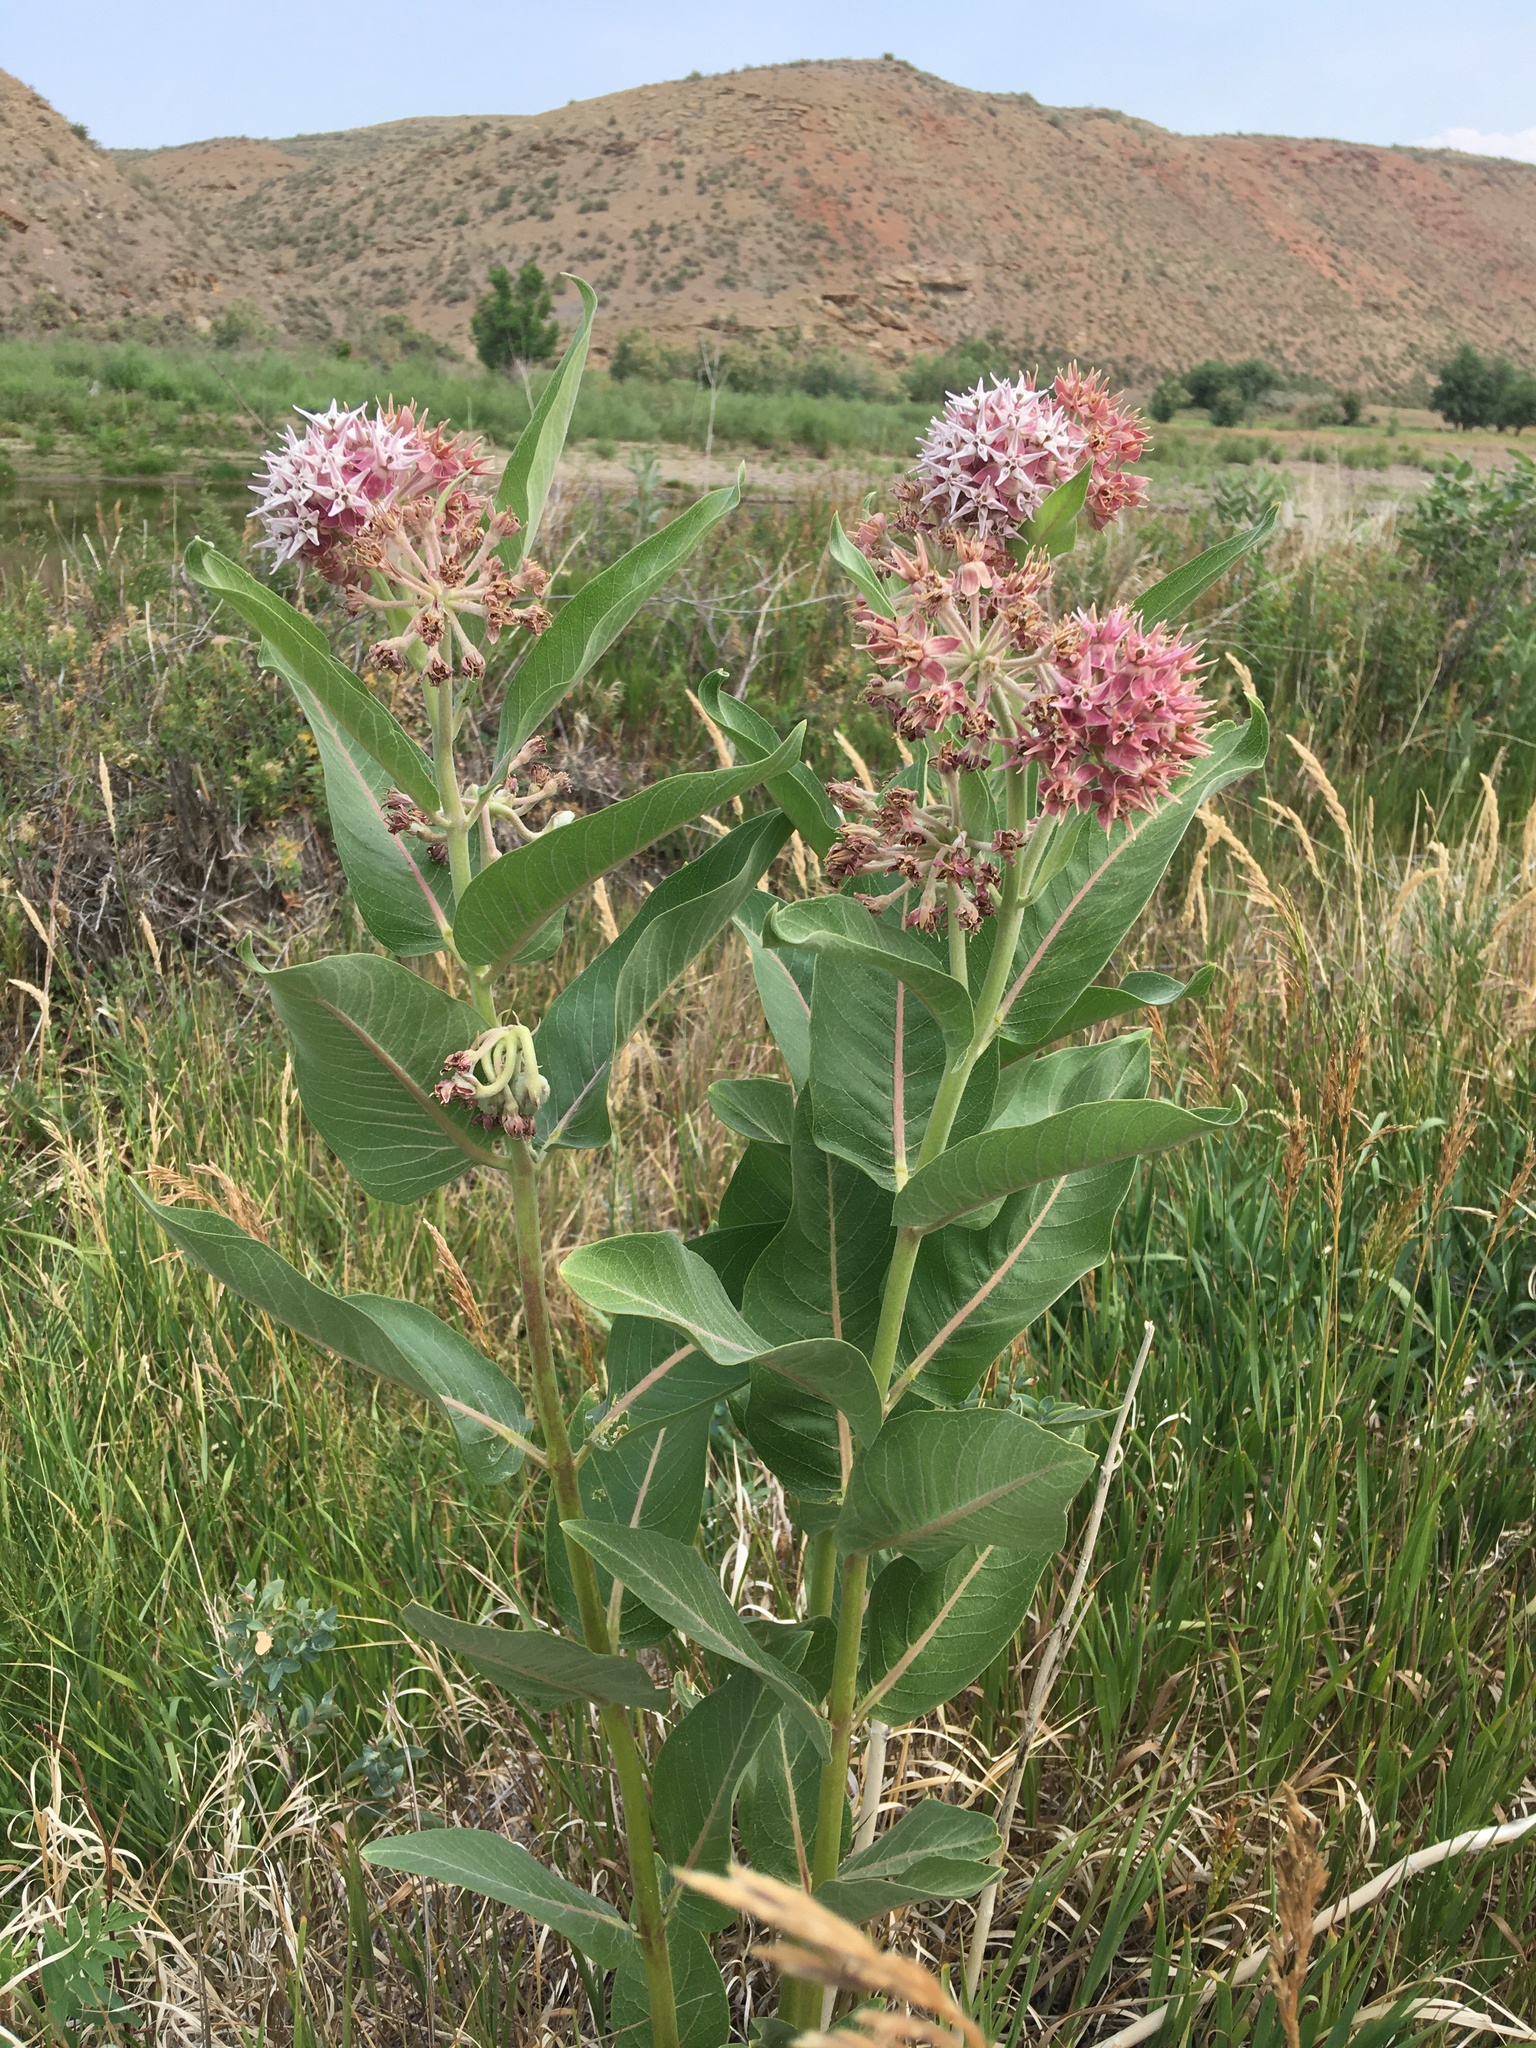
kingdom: Plantae
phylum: Tracheophyta
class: Magnoliopsida
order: Gentianales
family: Apocynaceae
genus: Asclepias
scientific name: Asclepias speciosa
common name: Showy milkweed
